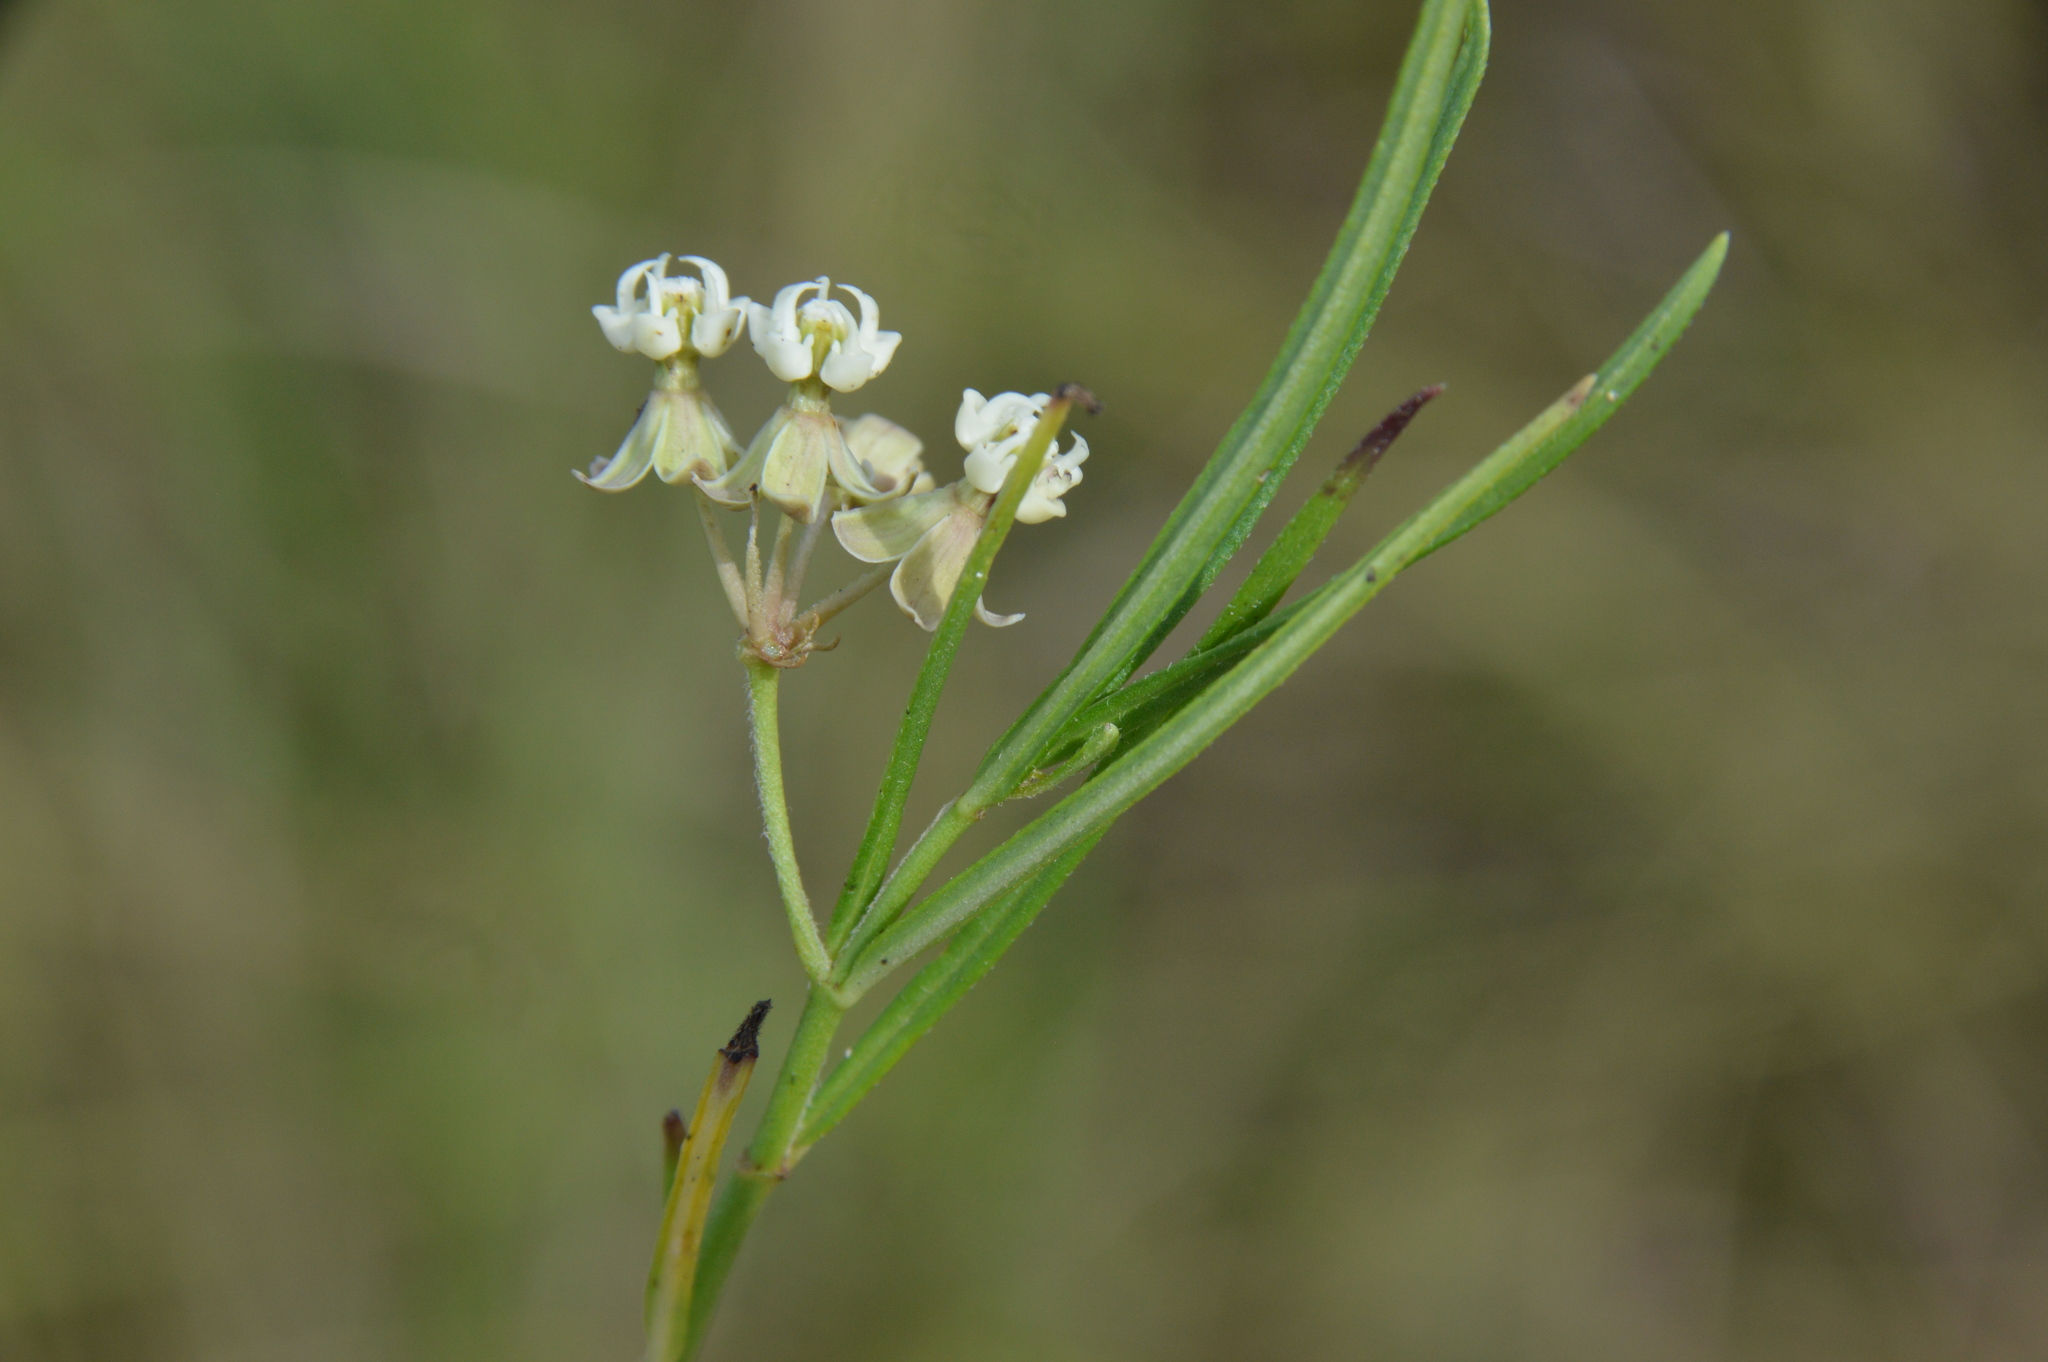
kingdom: Plantae
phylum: Tracheophyta
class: Magnoliopsida
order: Gentianales
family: Apocynaceae
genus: Asclepias
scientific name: Asclepias linearis
